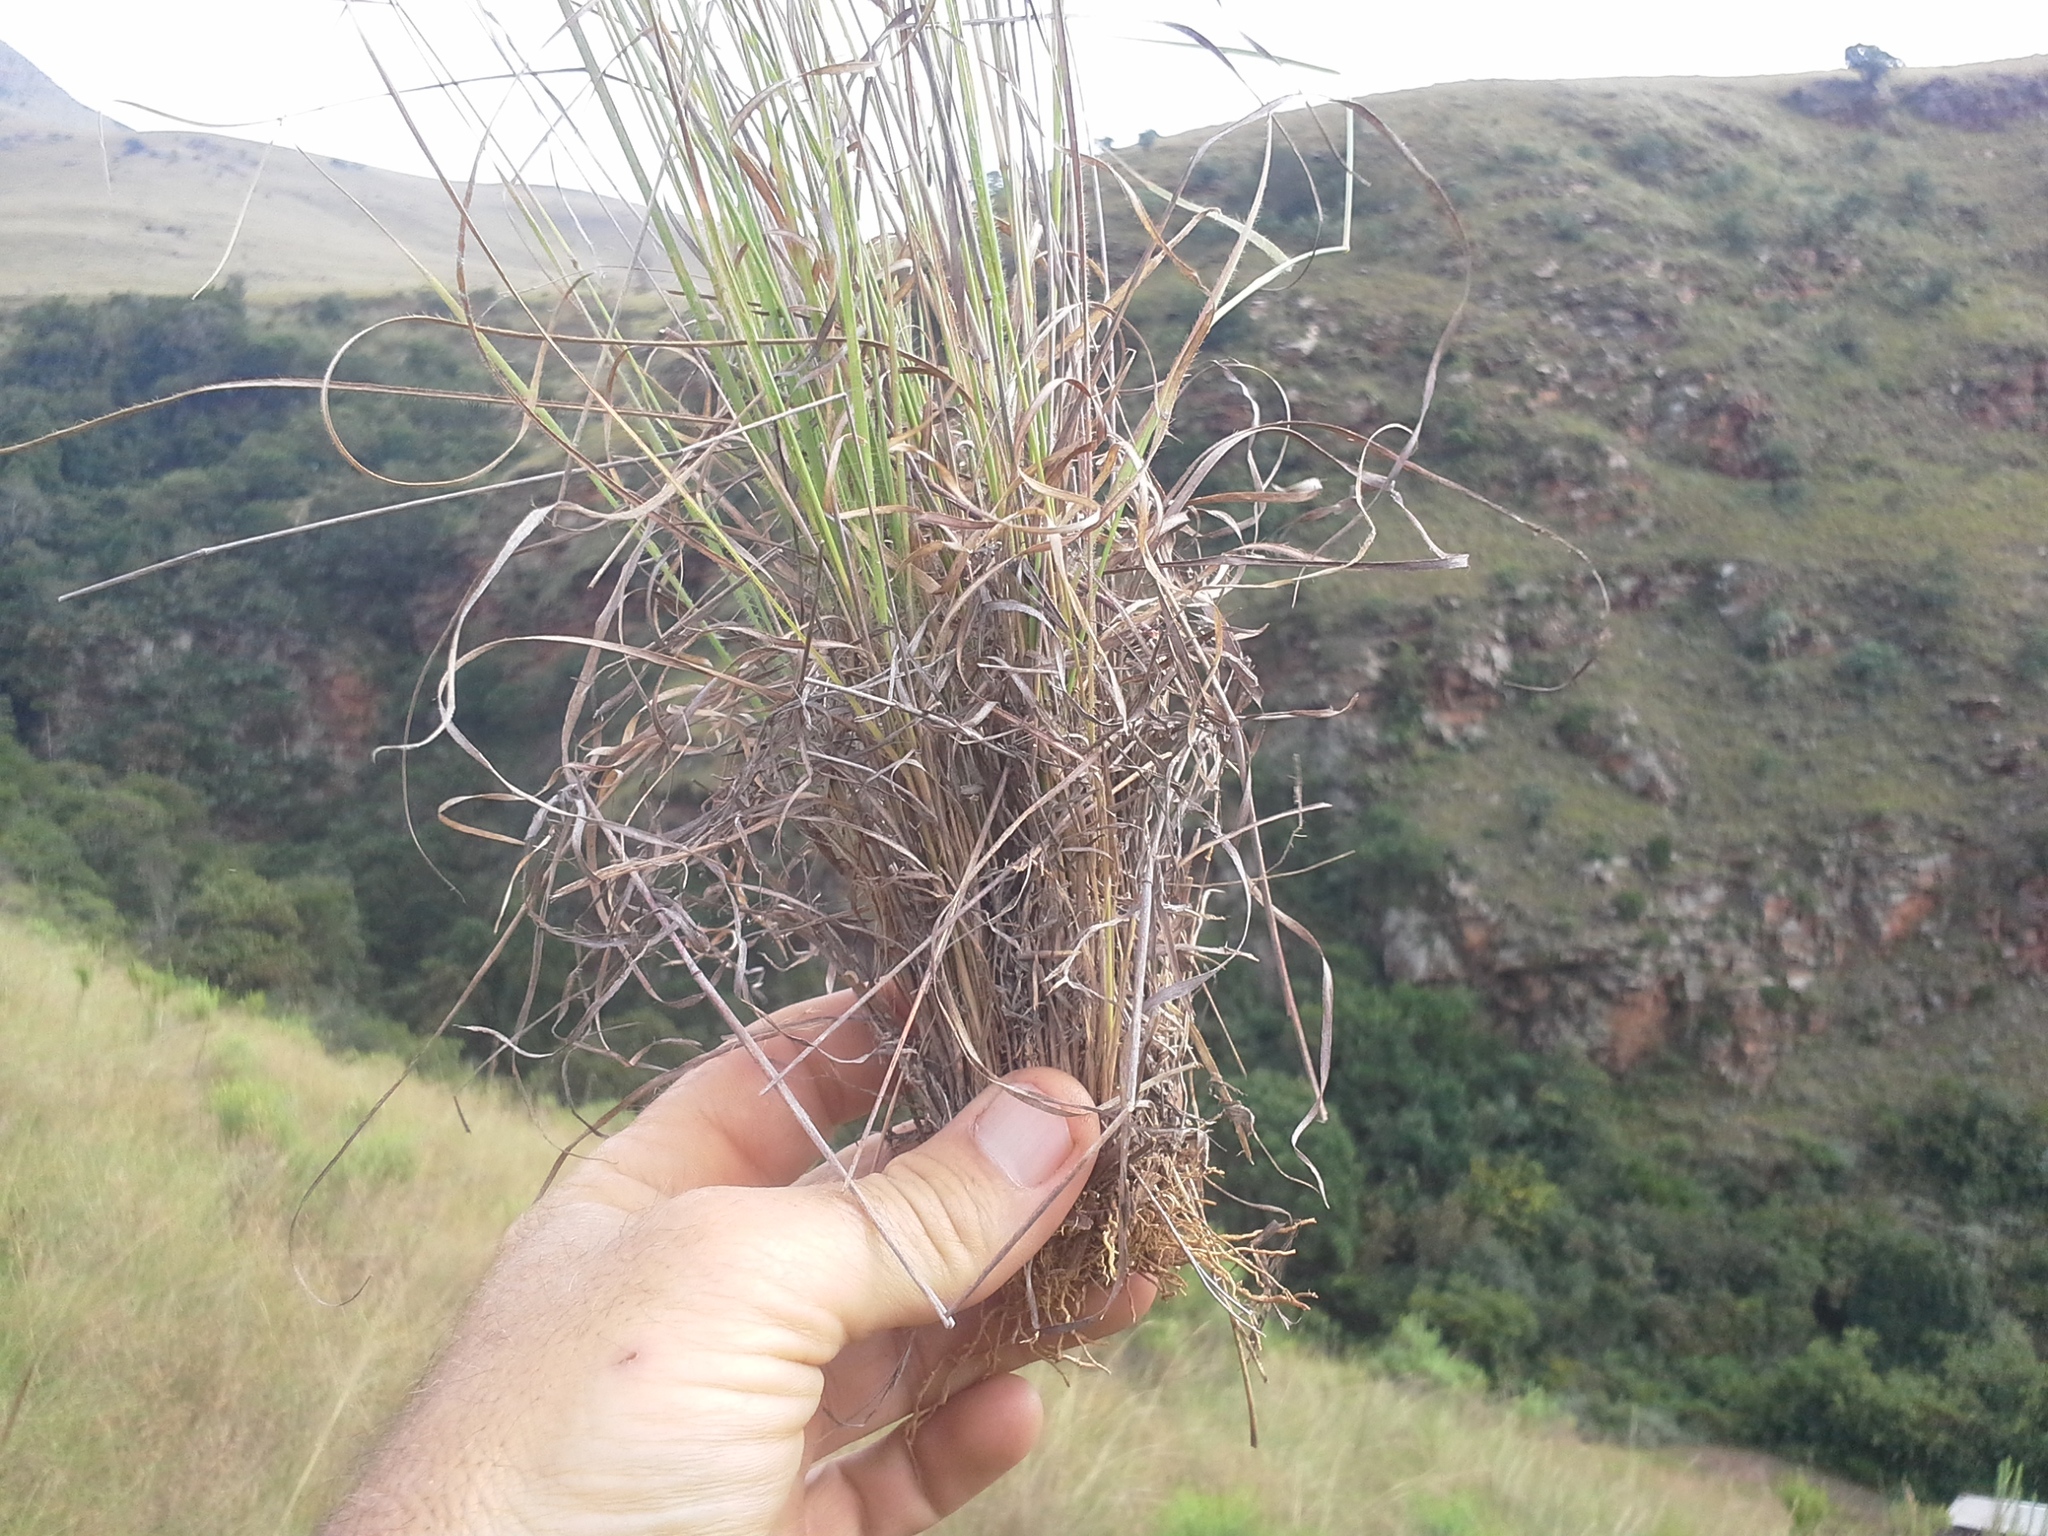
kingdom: Plantae
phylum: Tracheophyta
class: Liliopsida
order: Poales
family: Poaceae
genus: Loudetia
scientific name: Loudetia flavida
